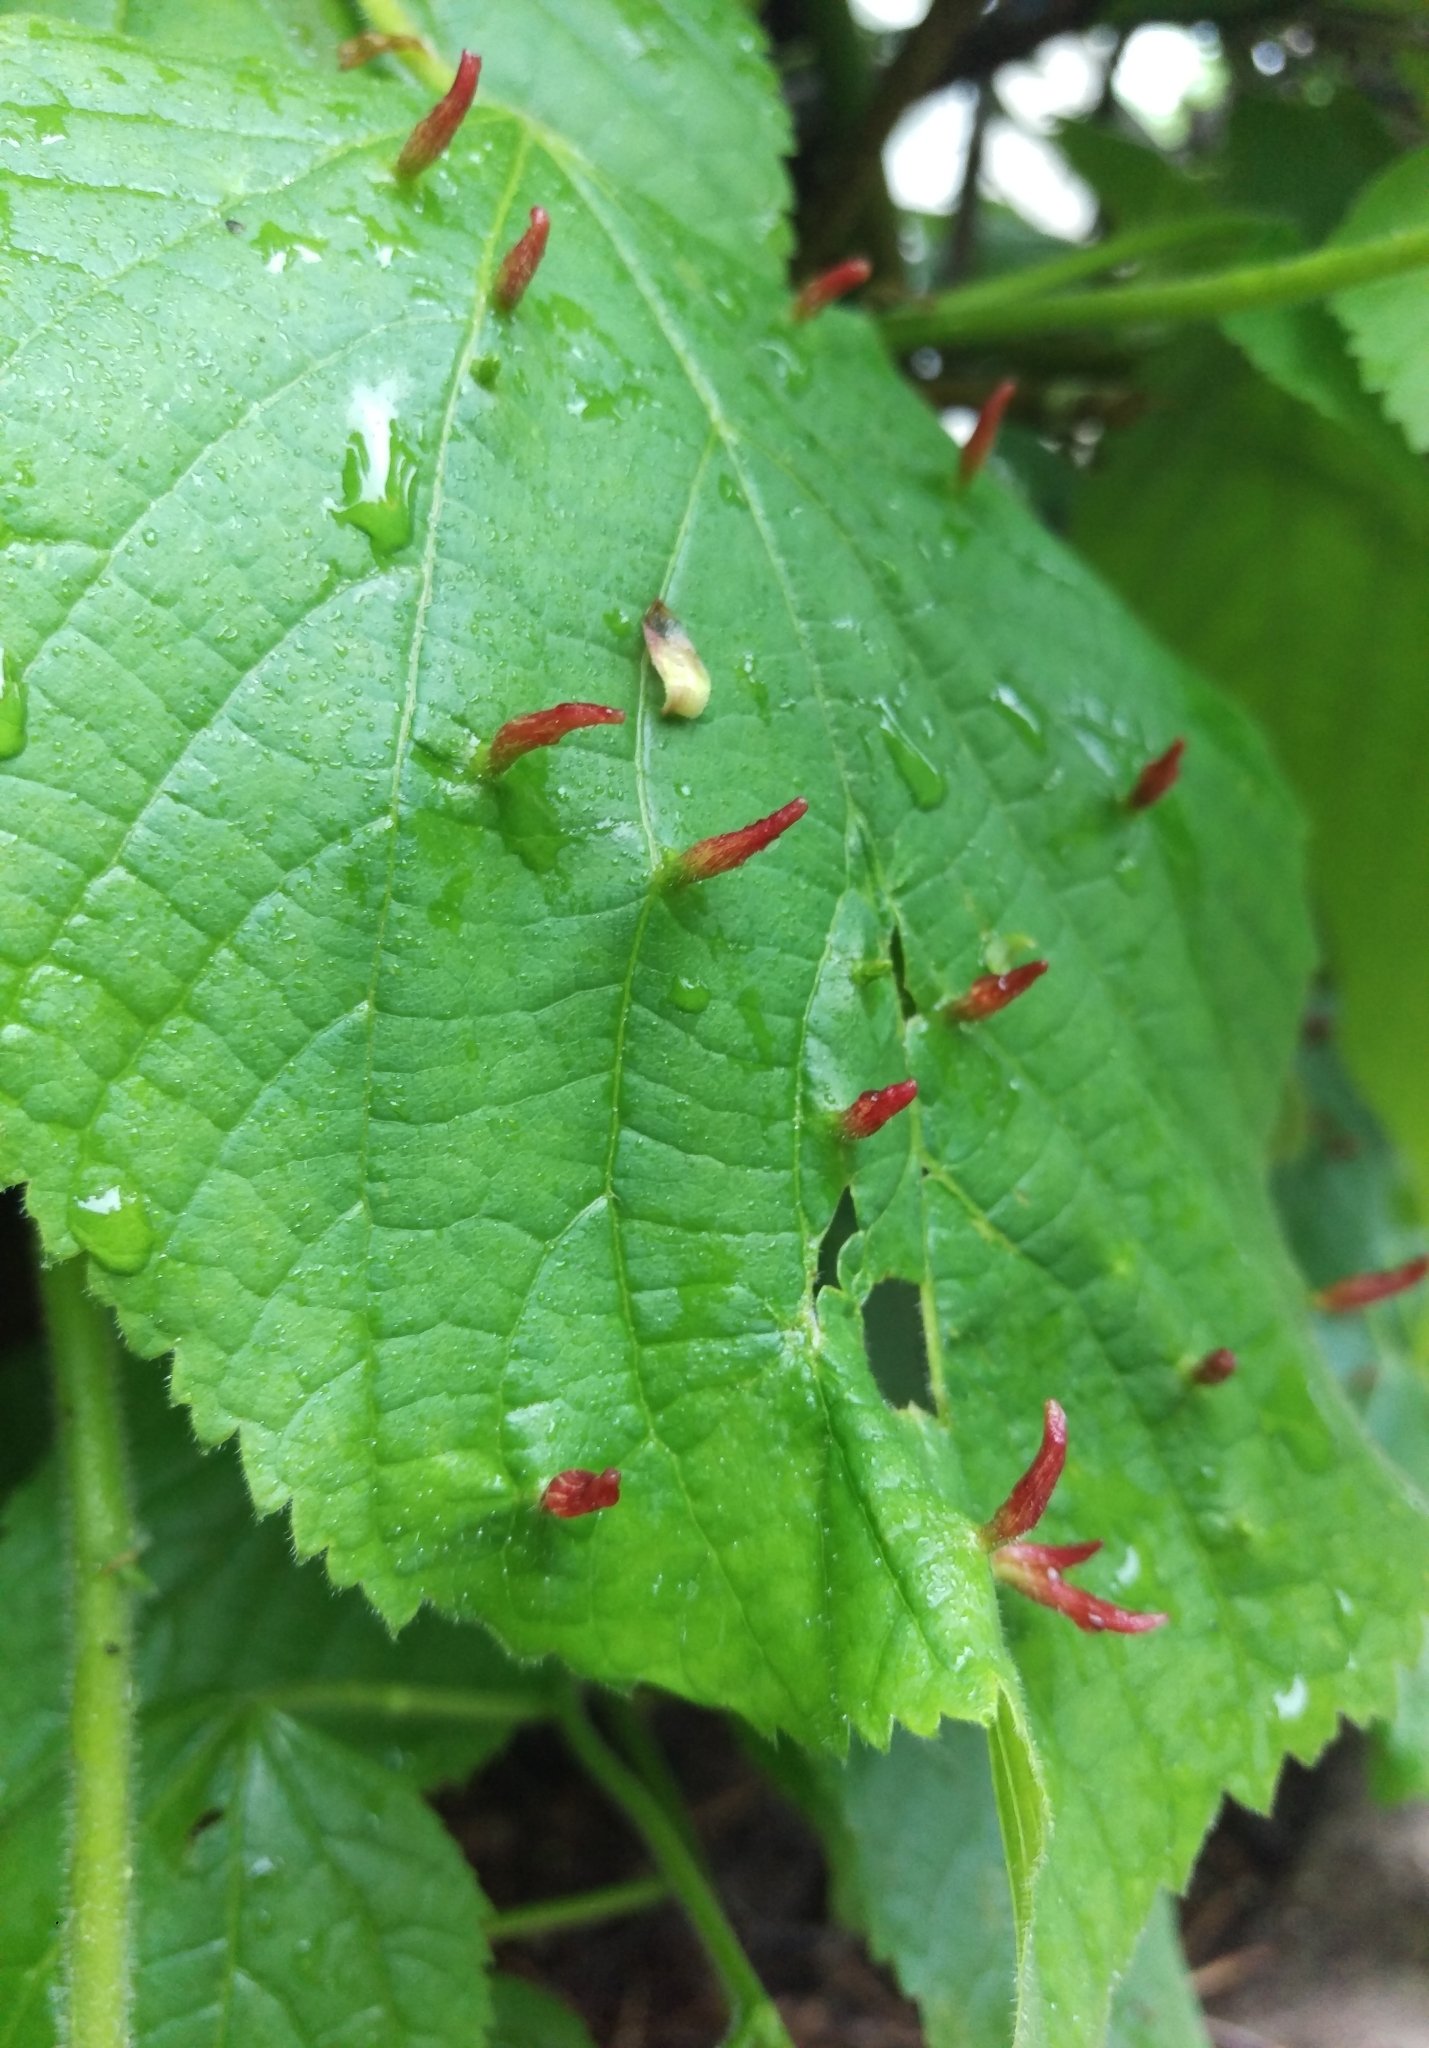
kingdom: Animalia
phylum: Arthropoda
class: Arachnida
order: Trombidiformes
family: Eriophyidae
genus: Eriophyes
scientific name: Eriophyes tiliae
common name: Red nail gall mite
